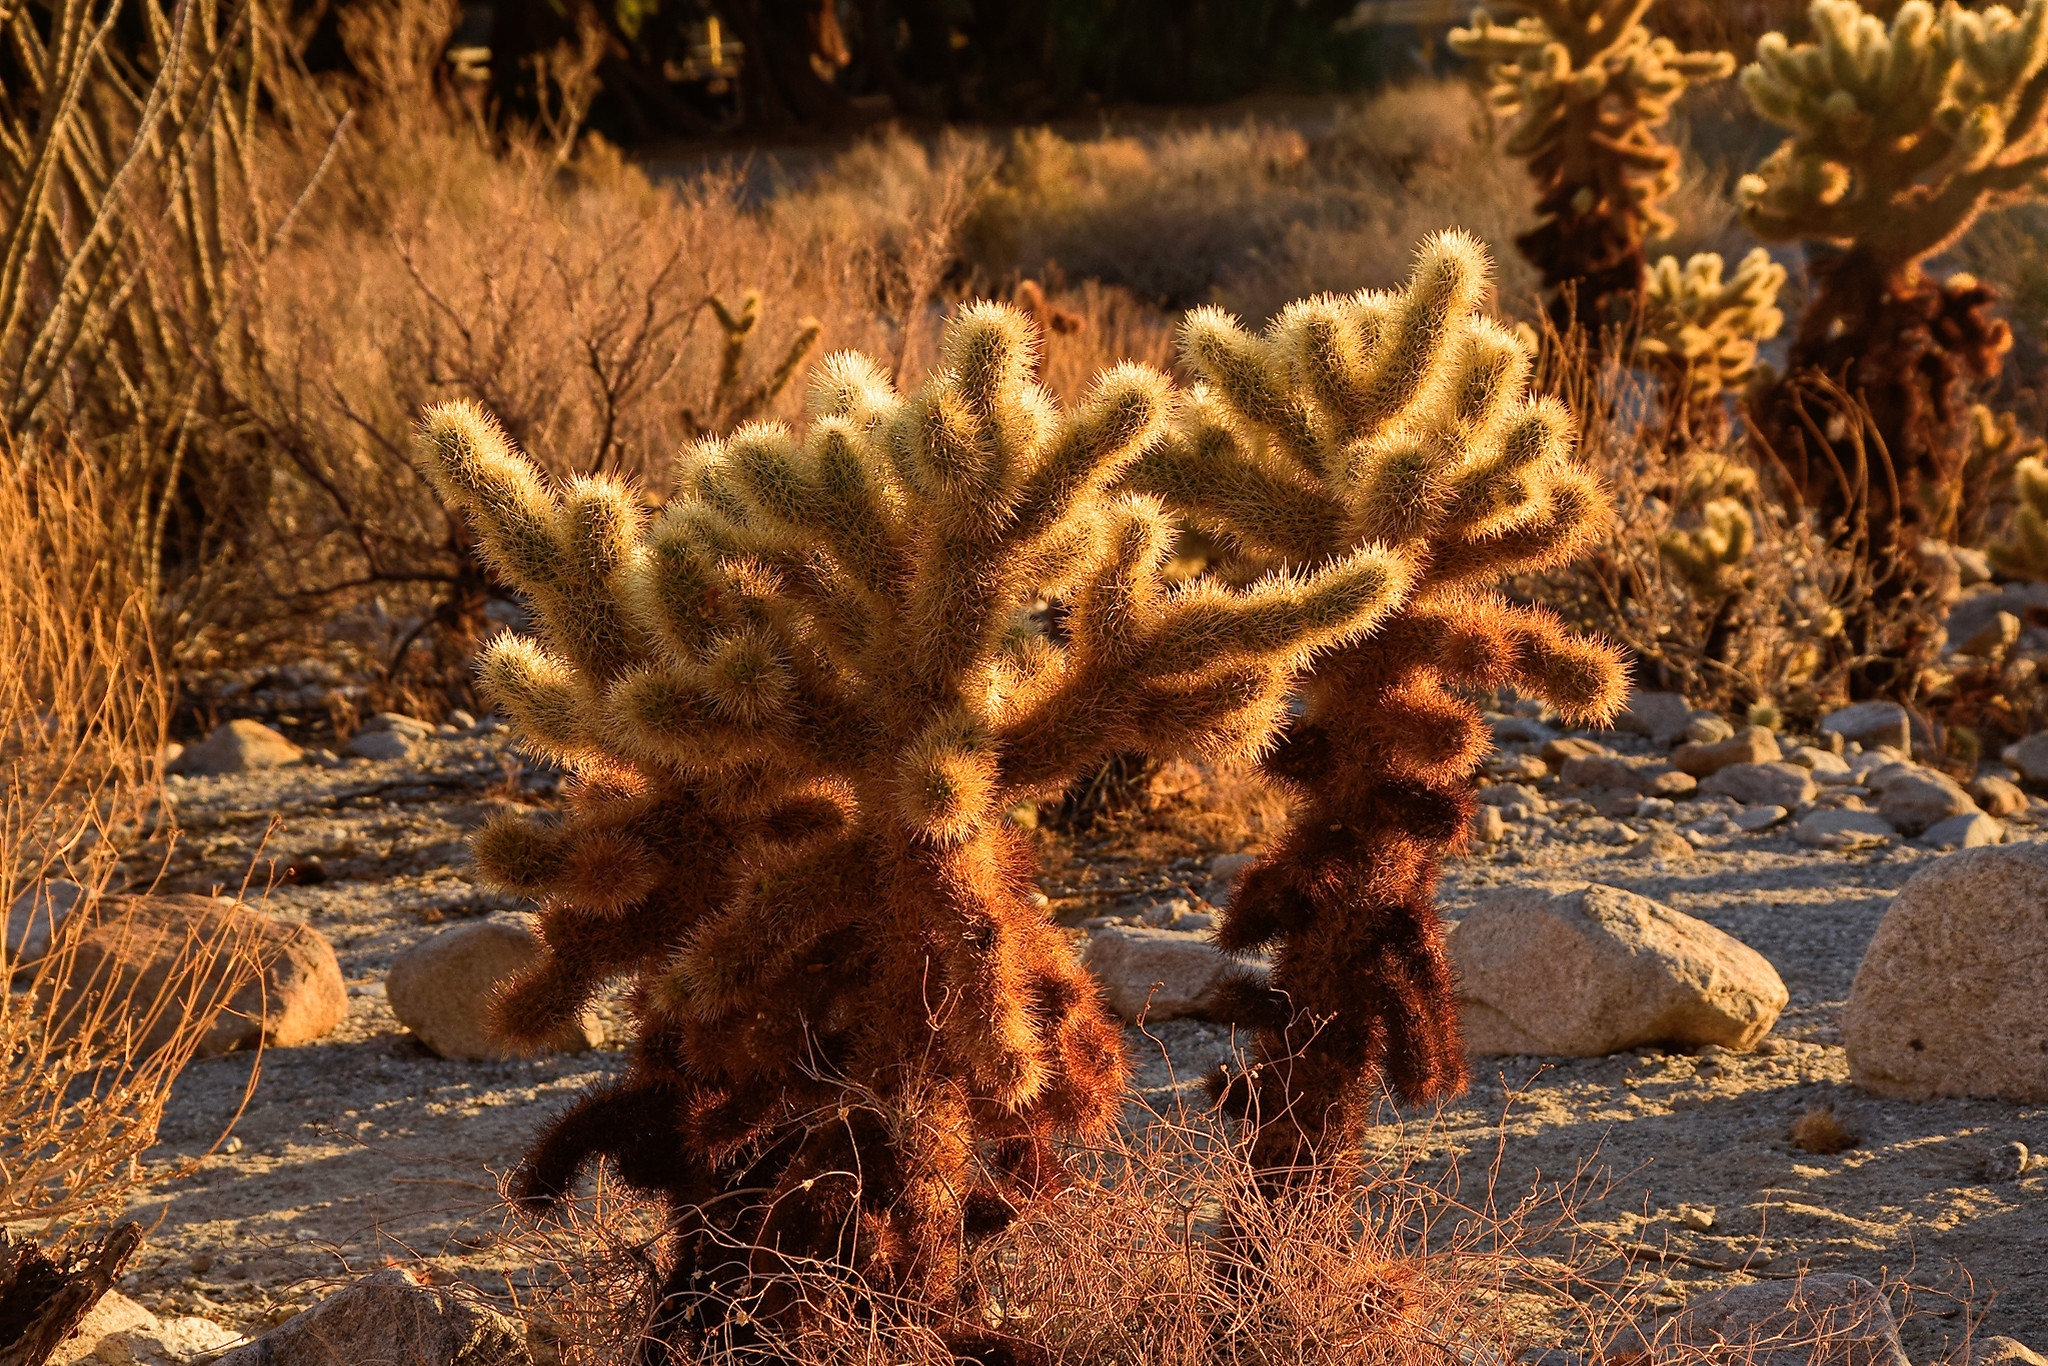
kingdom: Plantae
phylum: Tracheophyta
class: Magnoliopsida
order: Caryophyllales
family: Cactaceae
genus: Cylindropuntia
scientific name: Cylindropuntia fosbergii
